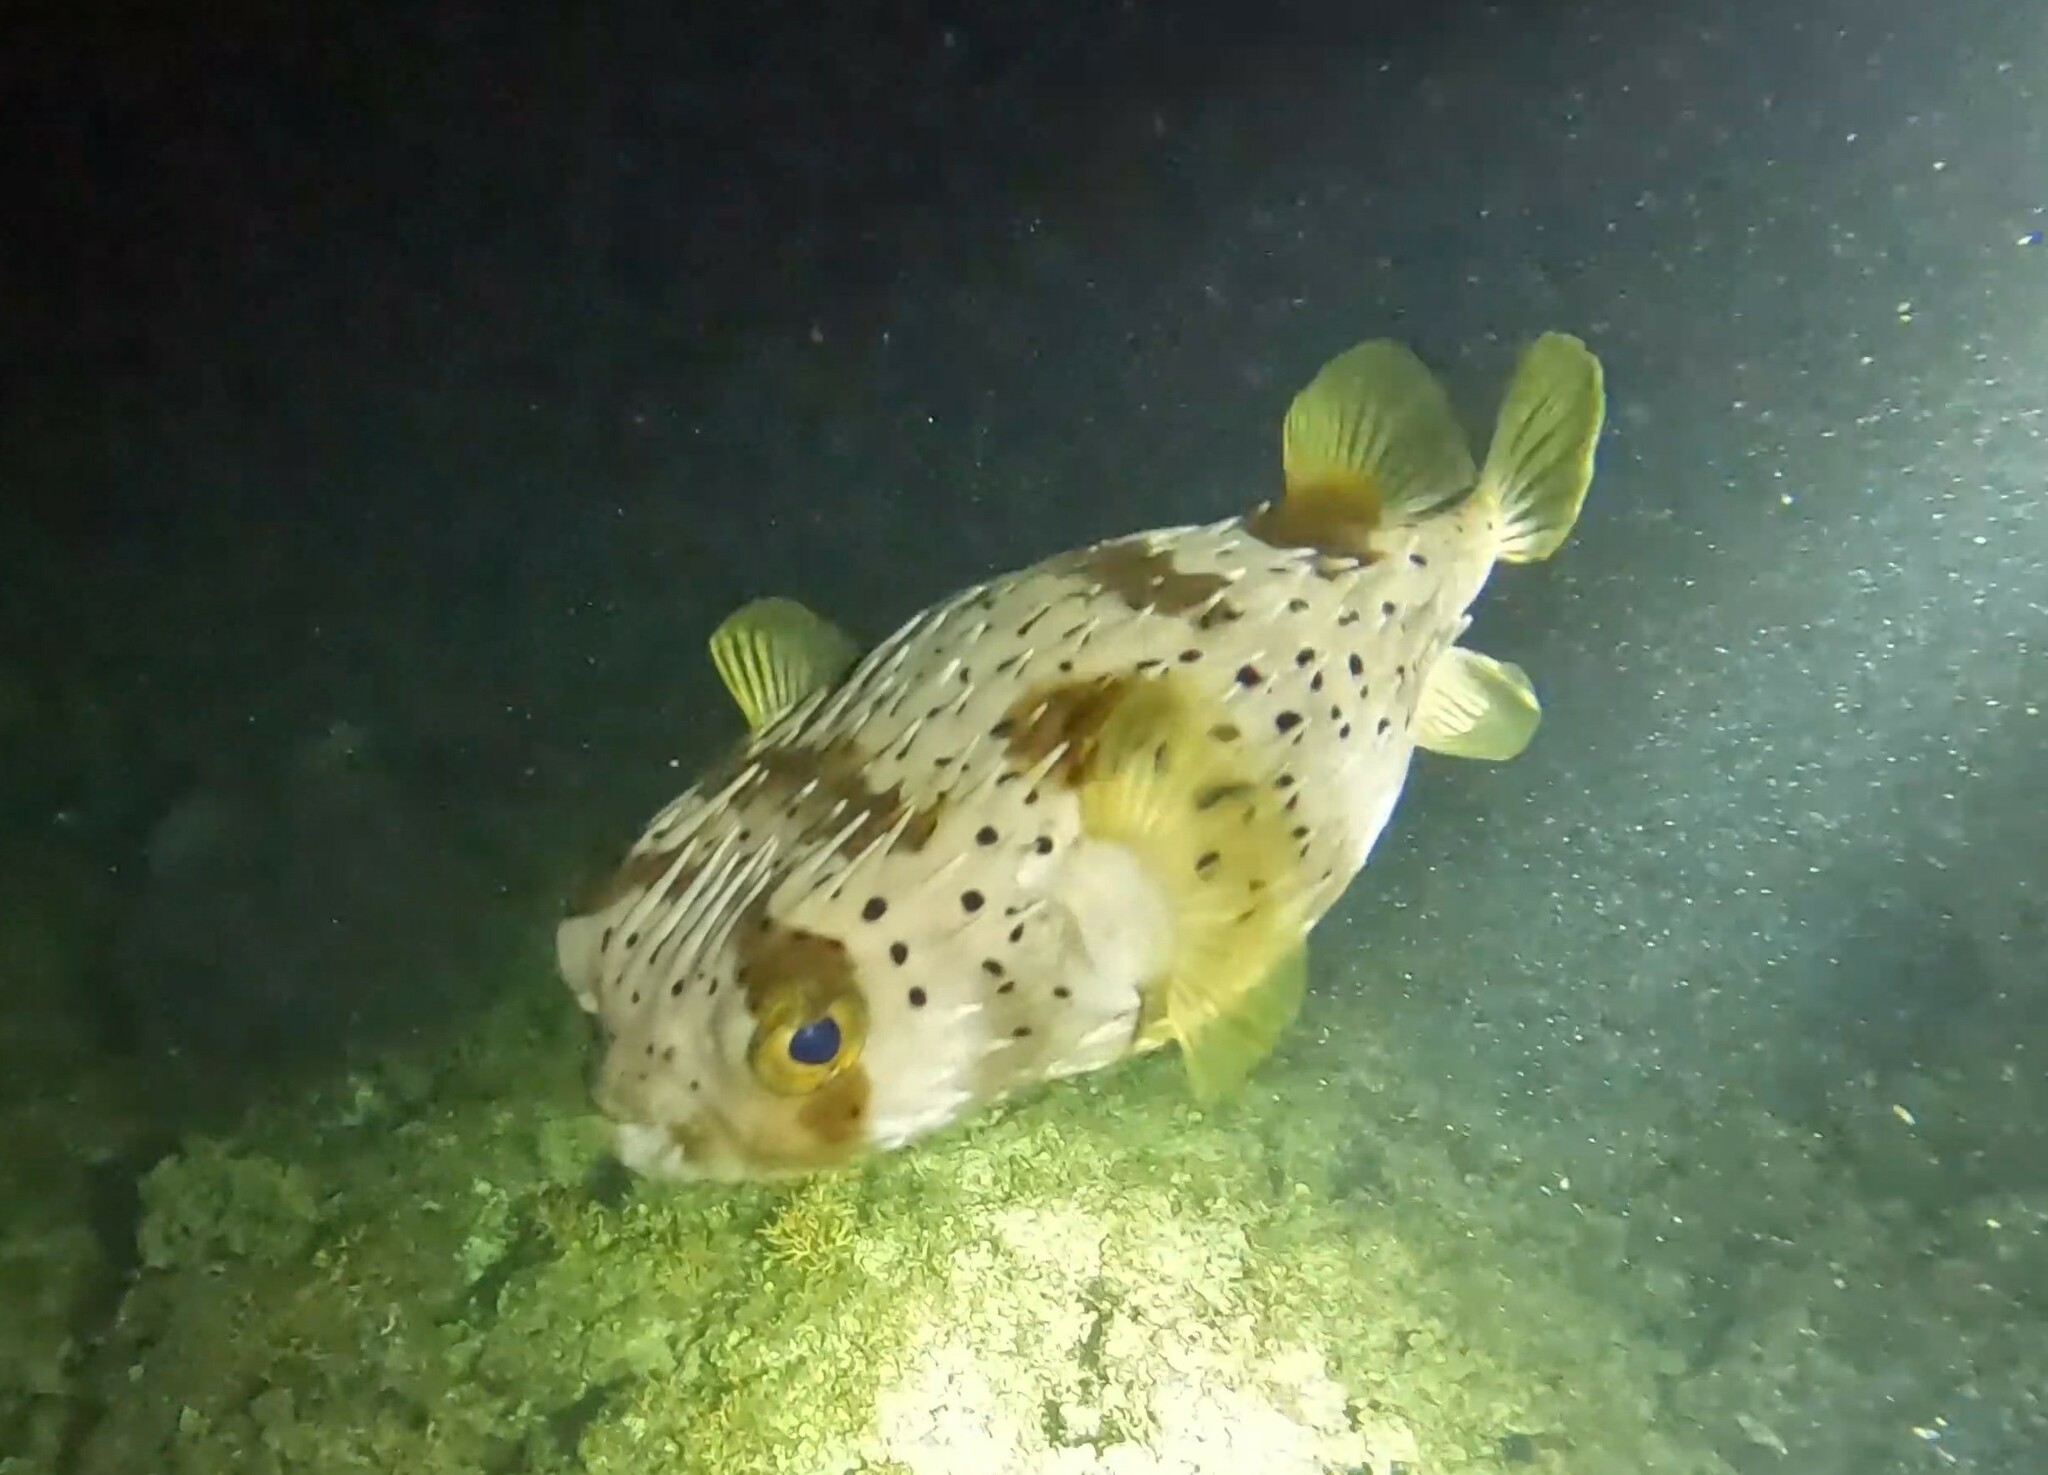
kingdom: Animalia
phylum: Chordata
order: Tetraodontiformes
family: Diodontidae
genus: Diodon
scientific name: Diodon holocanthus
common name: Balloonfish
